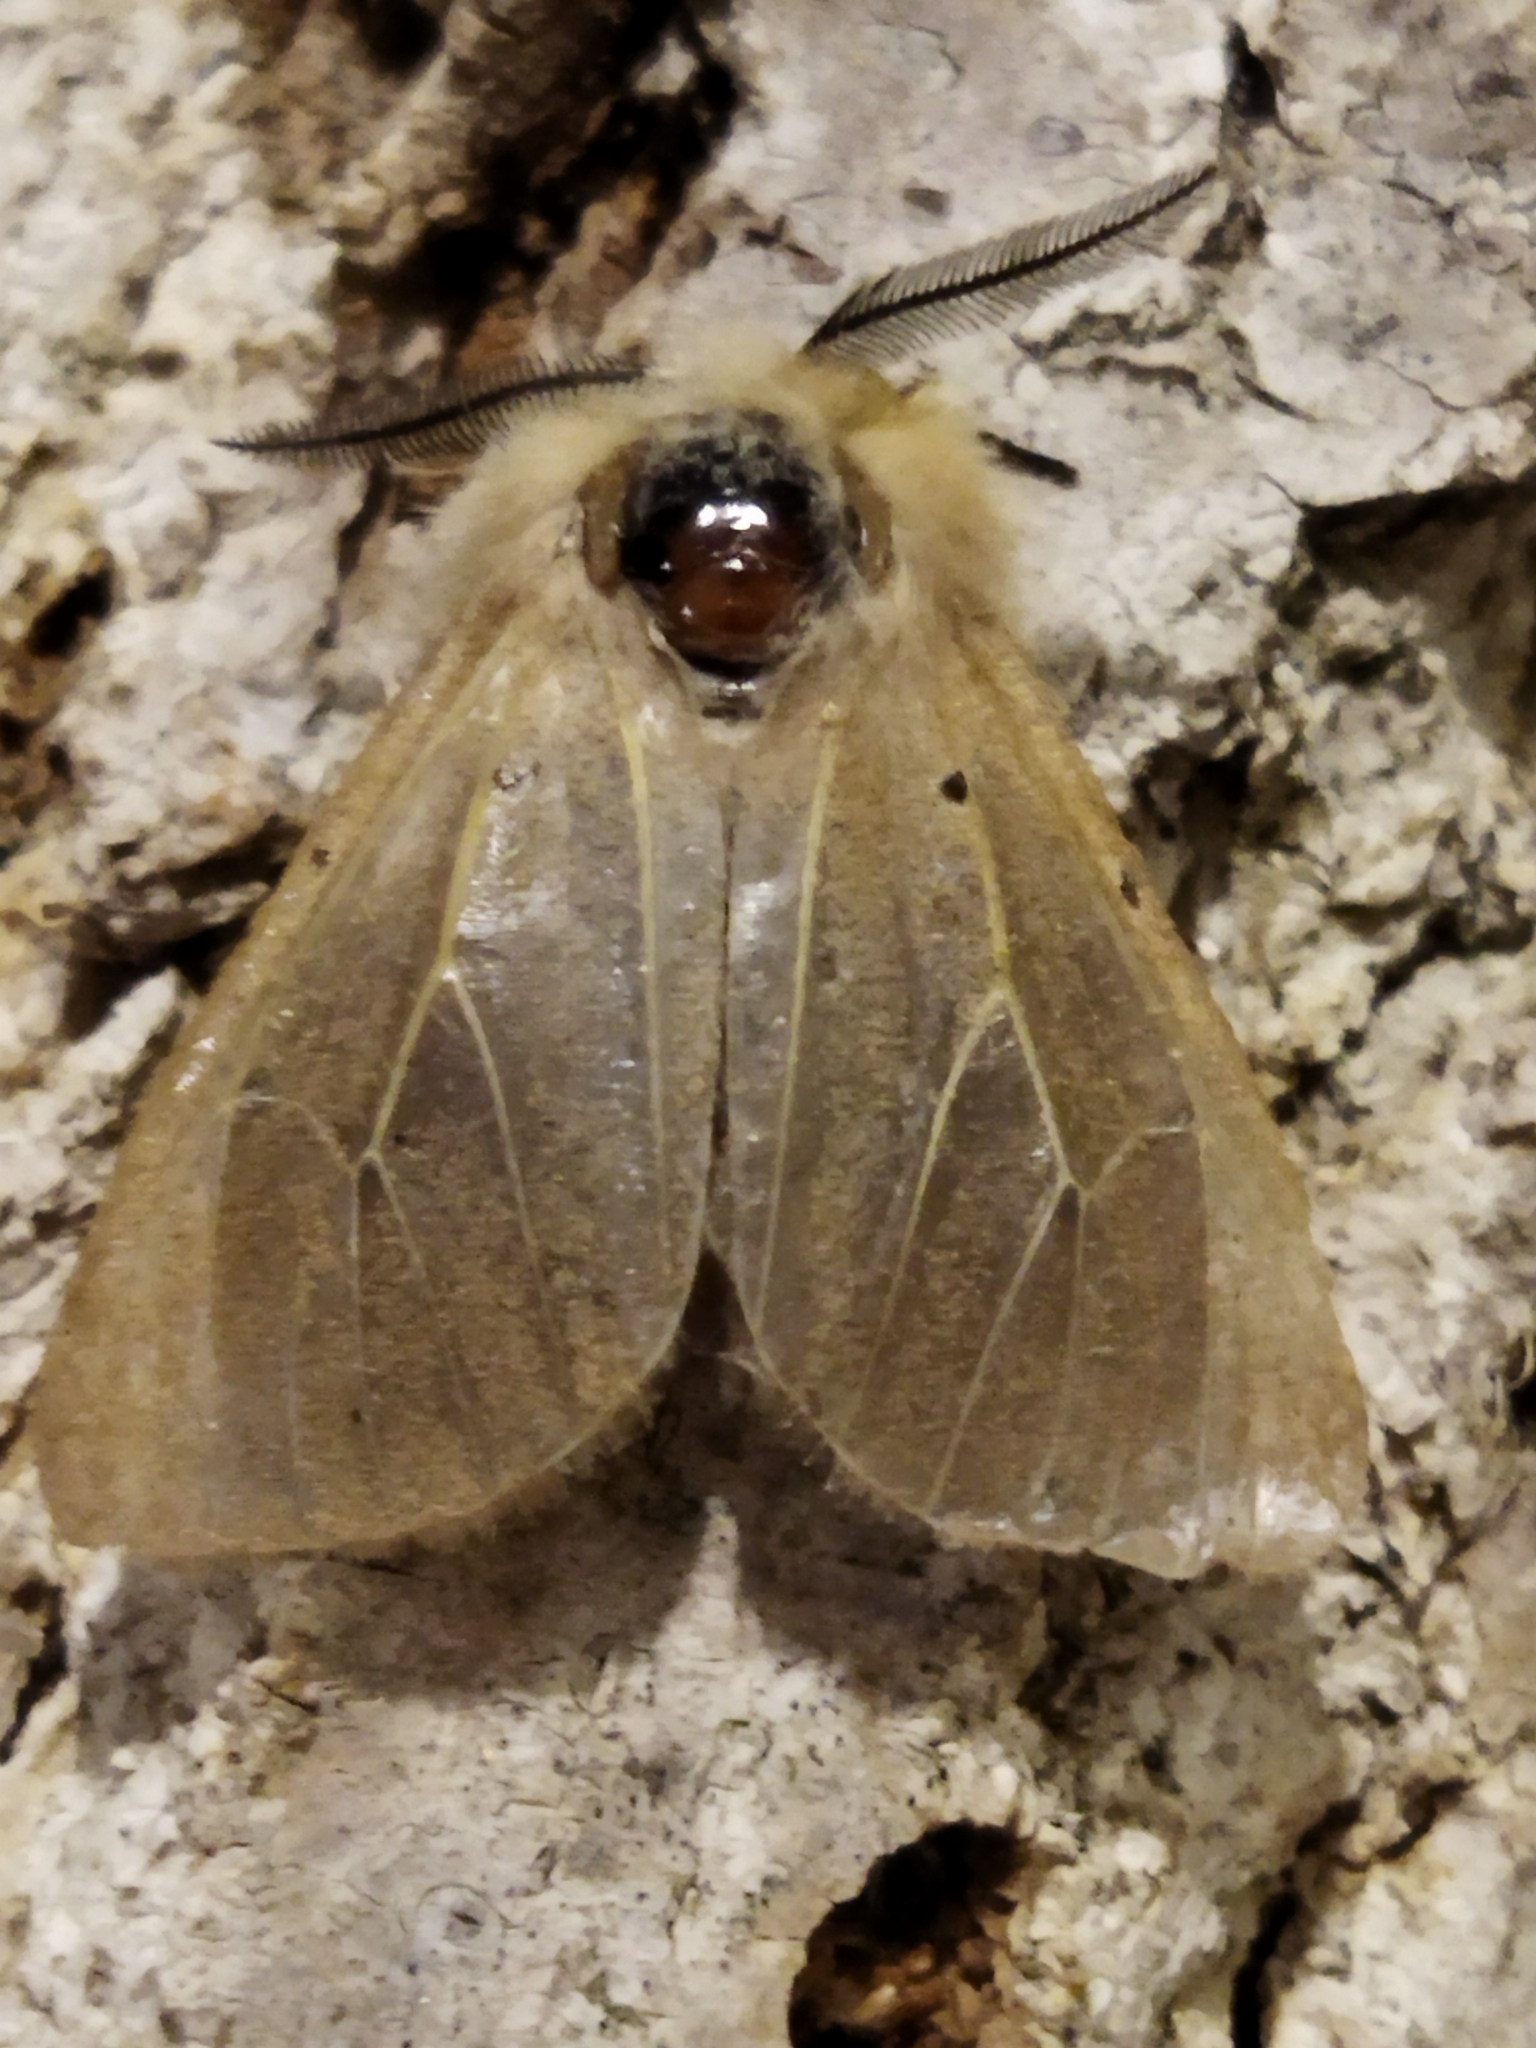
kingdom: Animalia
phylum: Arthropoda
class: Insecta
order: Lepidoptera
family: Erebidae
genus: Diaphora
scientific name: Diaphora mendica
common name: Muslin moth
